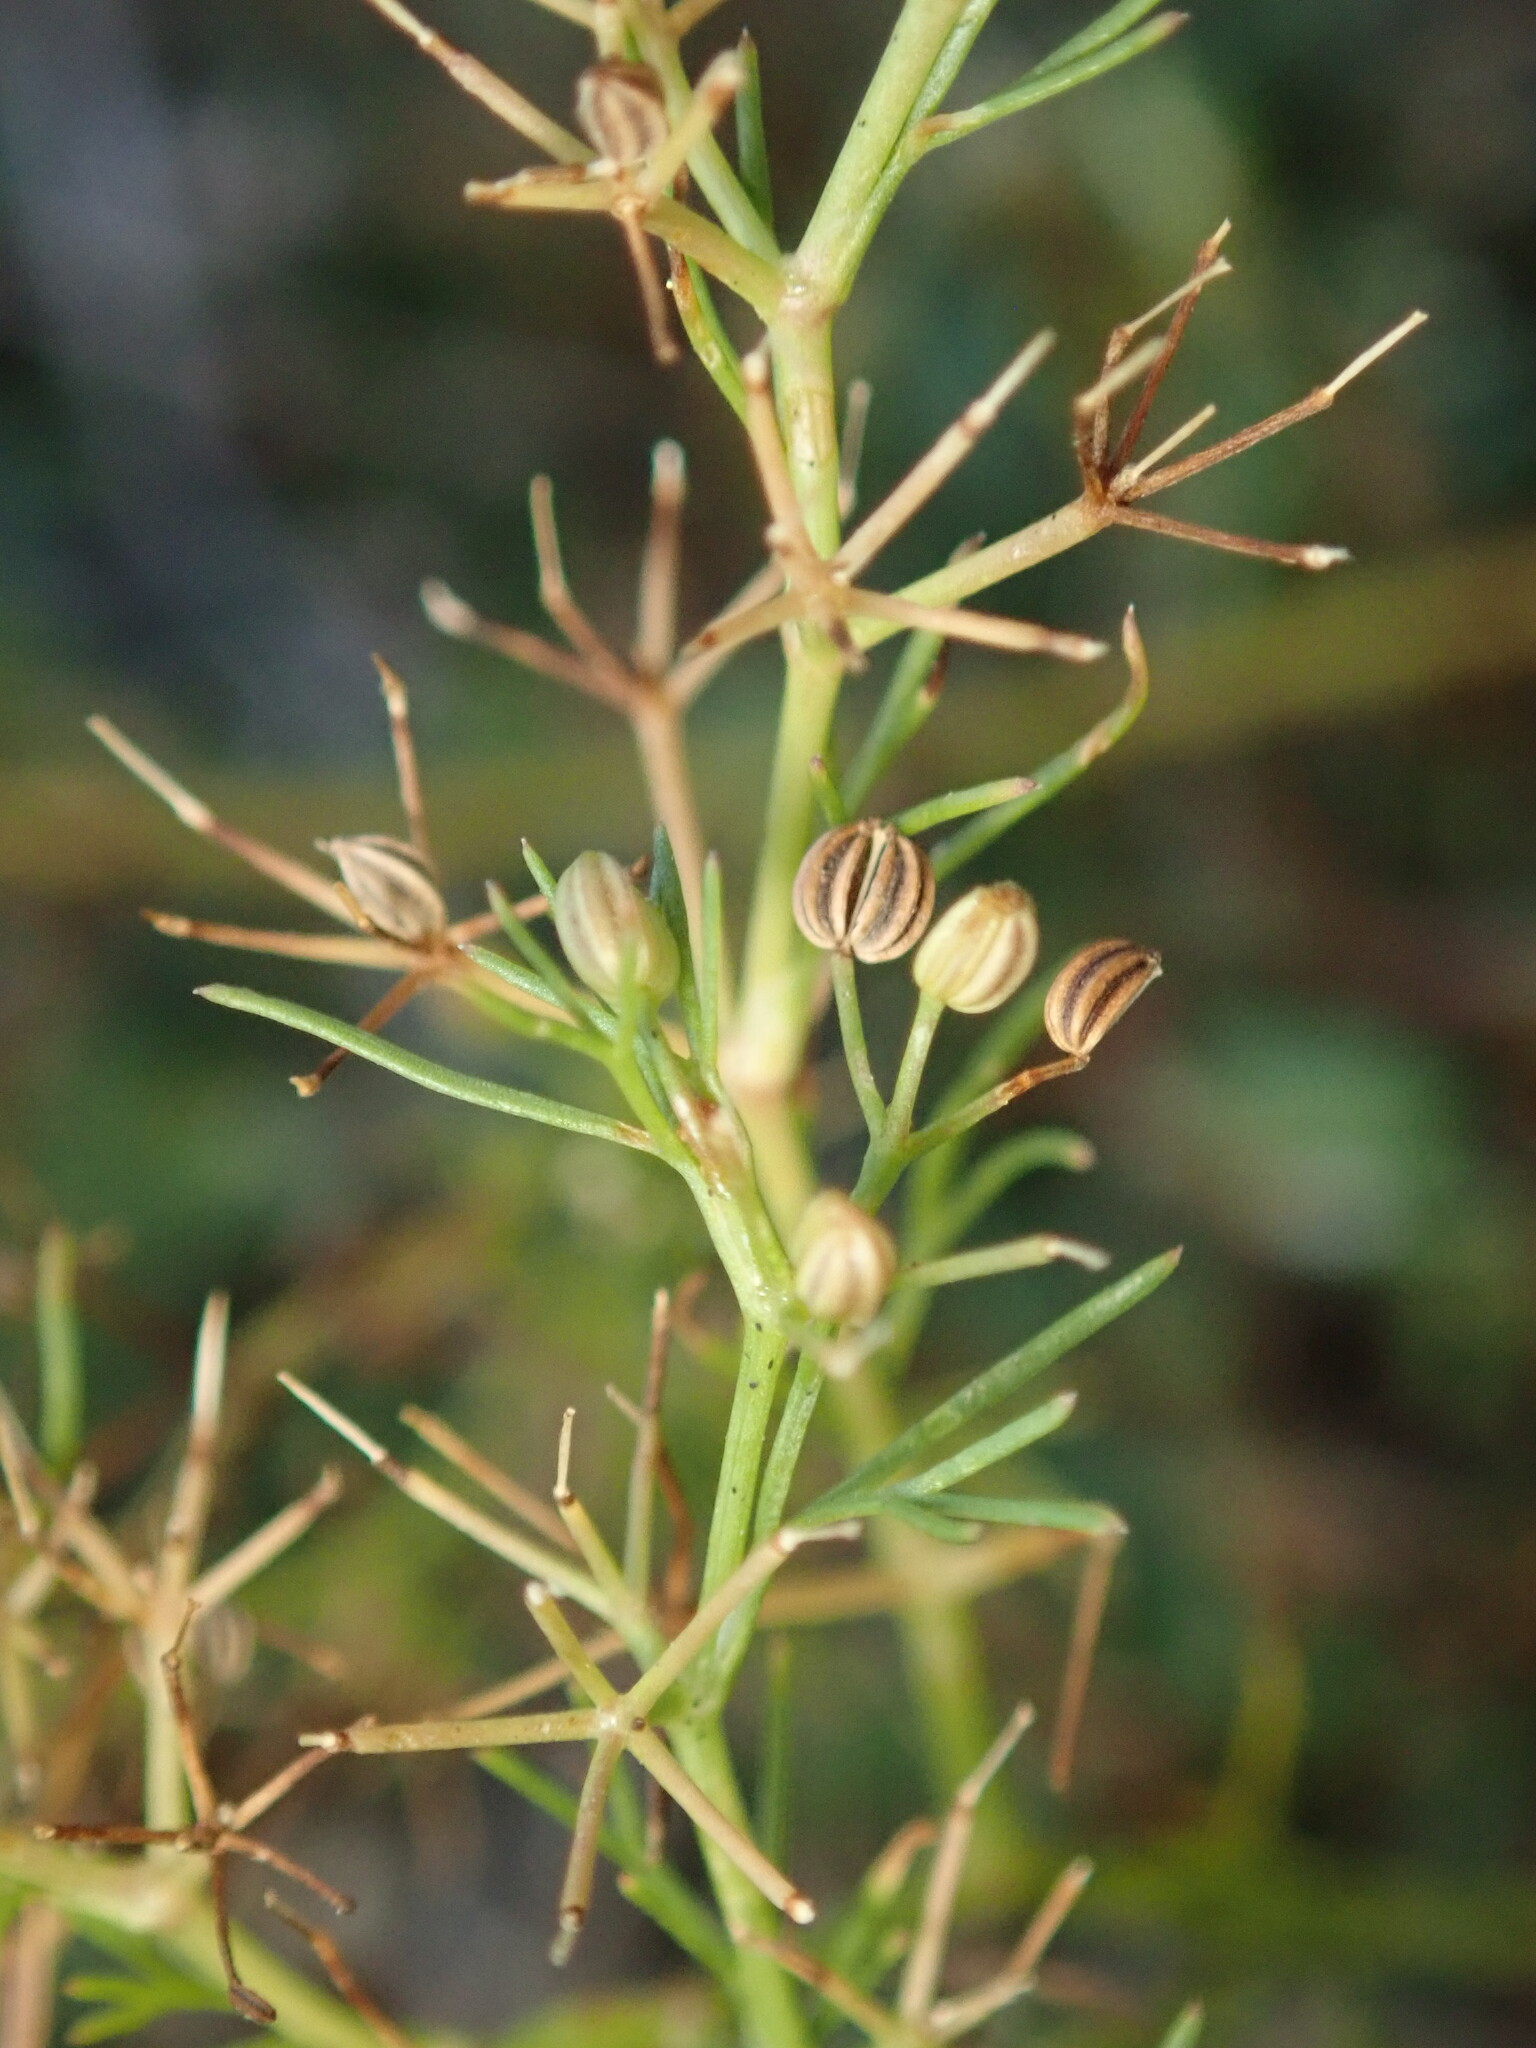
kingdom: Plantae
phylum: Tracheophyta
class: Magnoliopsida
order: Apiales
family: Apiaceae
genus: Cyclospermum
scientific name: Cyclospermum leptophyllum
